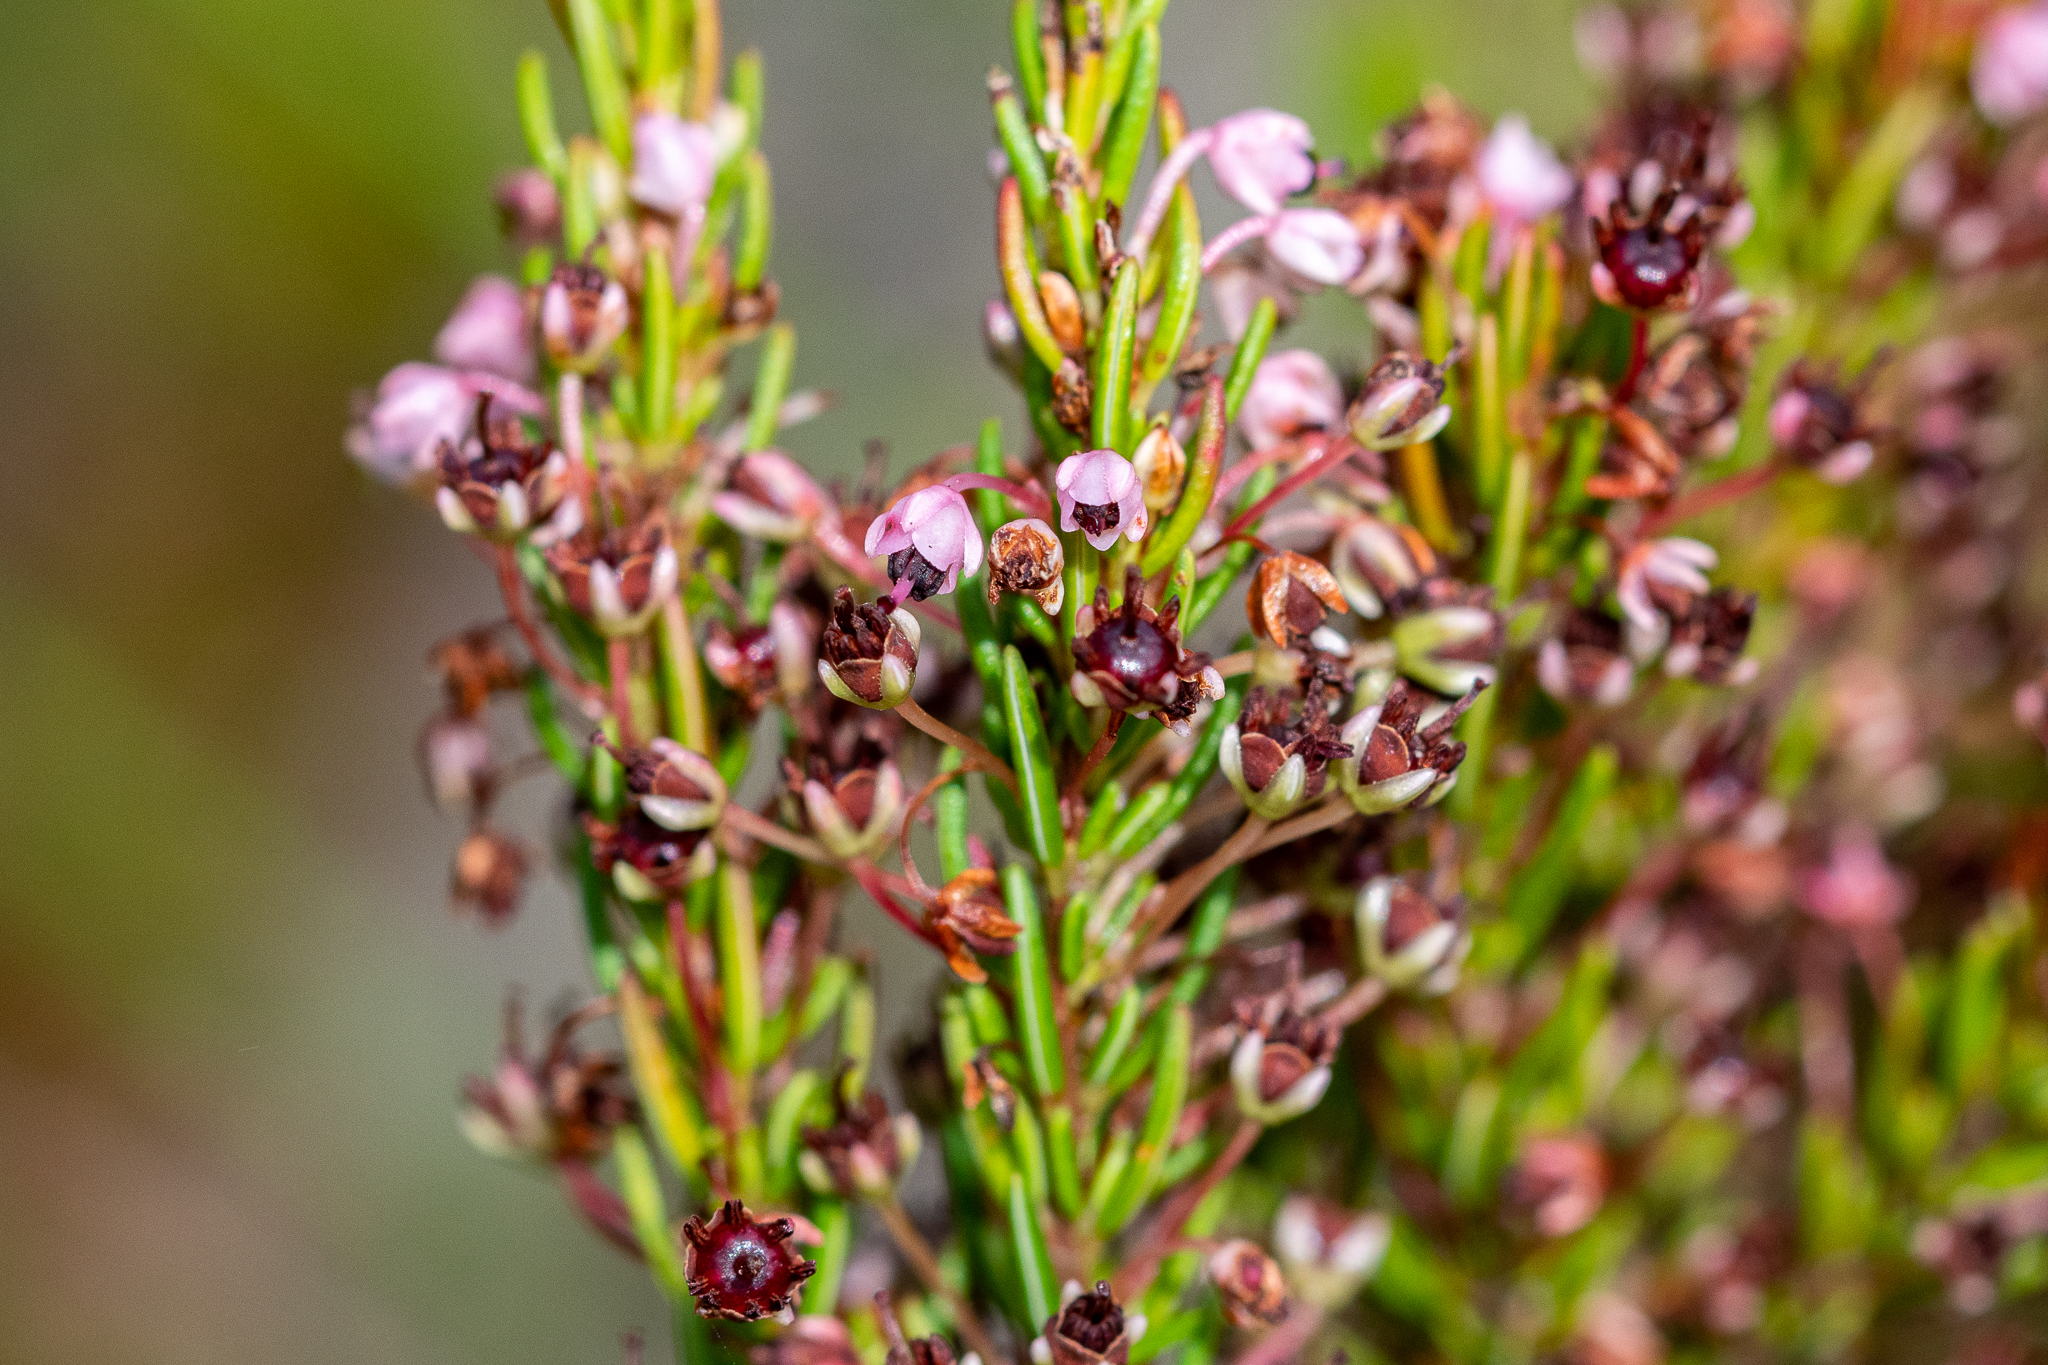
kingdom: Plantae
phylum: Tracheophyta
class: Magnoliopsida
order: Ericales
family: Ericaceae
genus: Erica
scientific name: Erica rubiginosa
